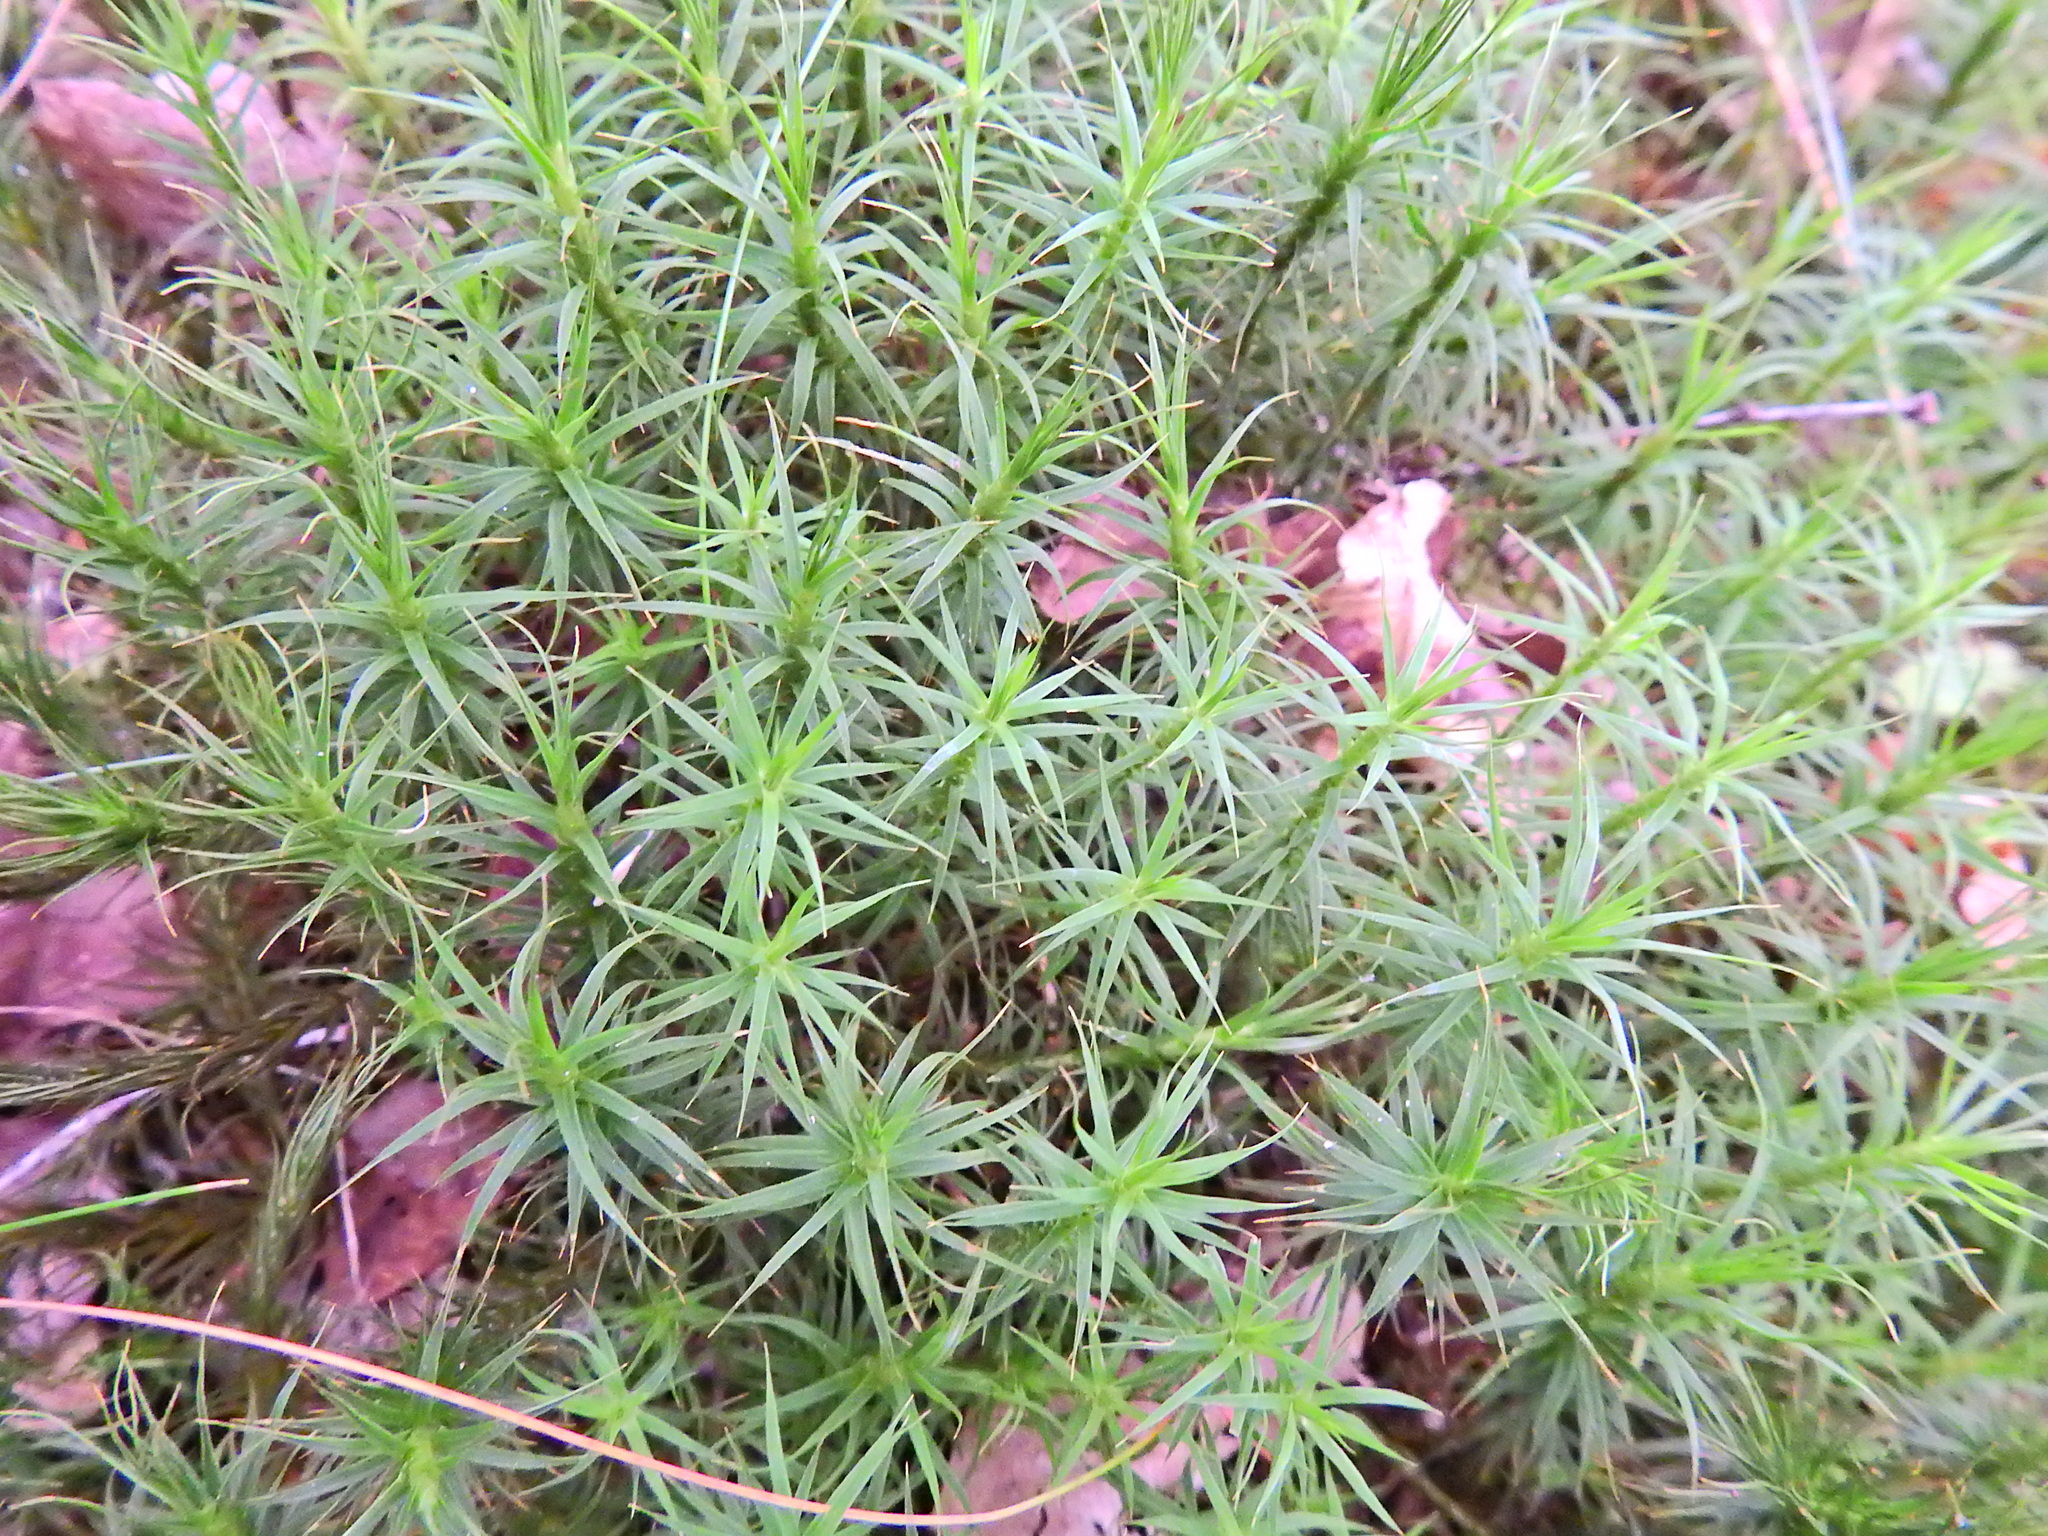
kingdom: Plantae
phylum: Bryophyta
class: Polytrichopsida
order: Polytrichales
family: Polytrichaceae
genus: Polytrichum
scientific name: Polytrichum formosum
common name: Bank haircap moss
